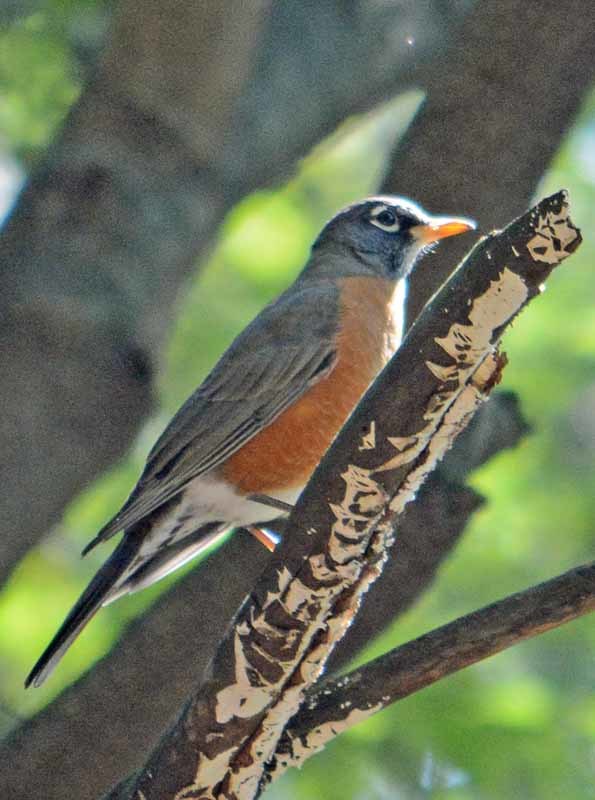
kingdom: Animalia
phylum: Chordata
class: Aves
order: Passeriformes
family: Turdidae
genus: Turdus
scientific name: Turdus migratorius
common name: American robin
